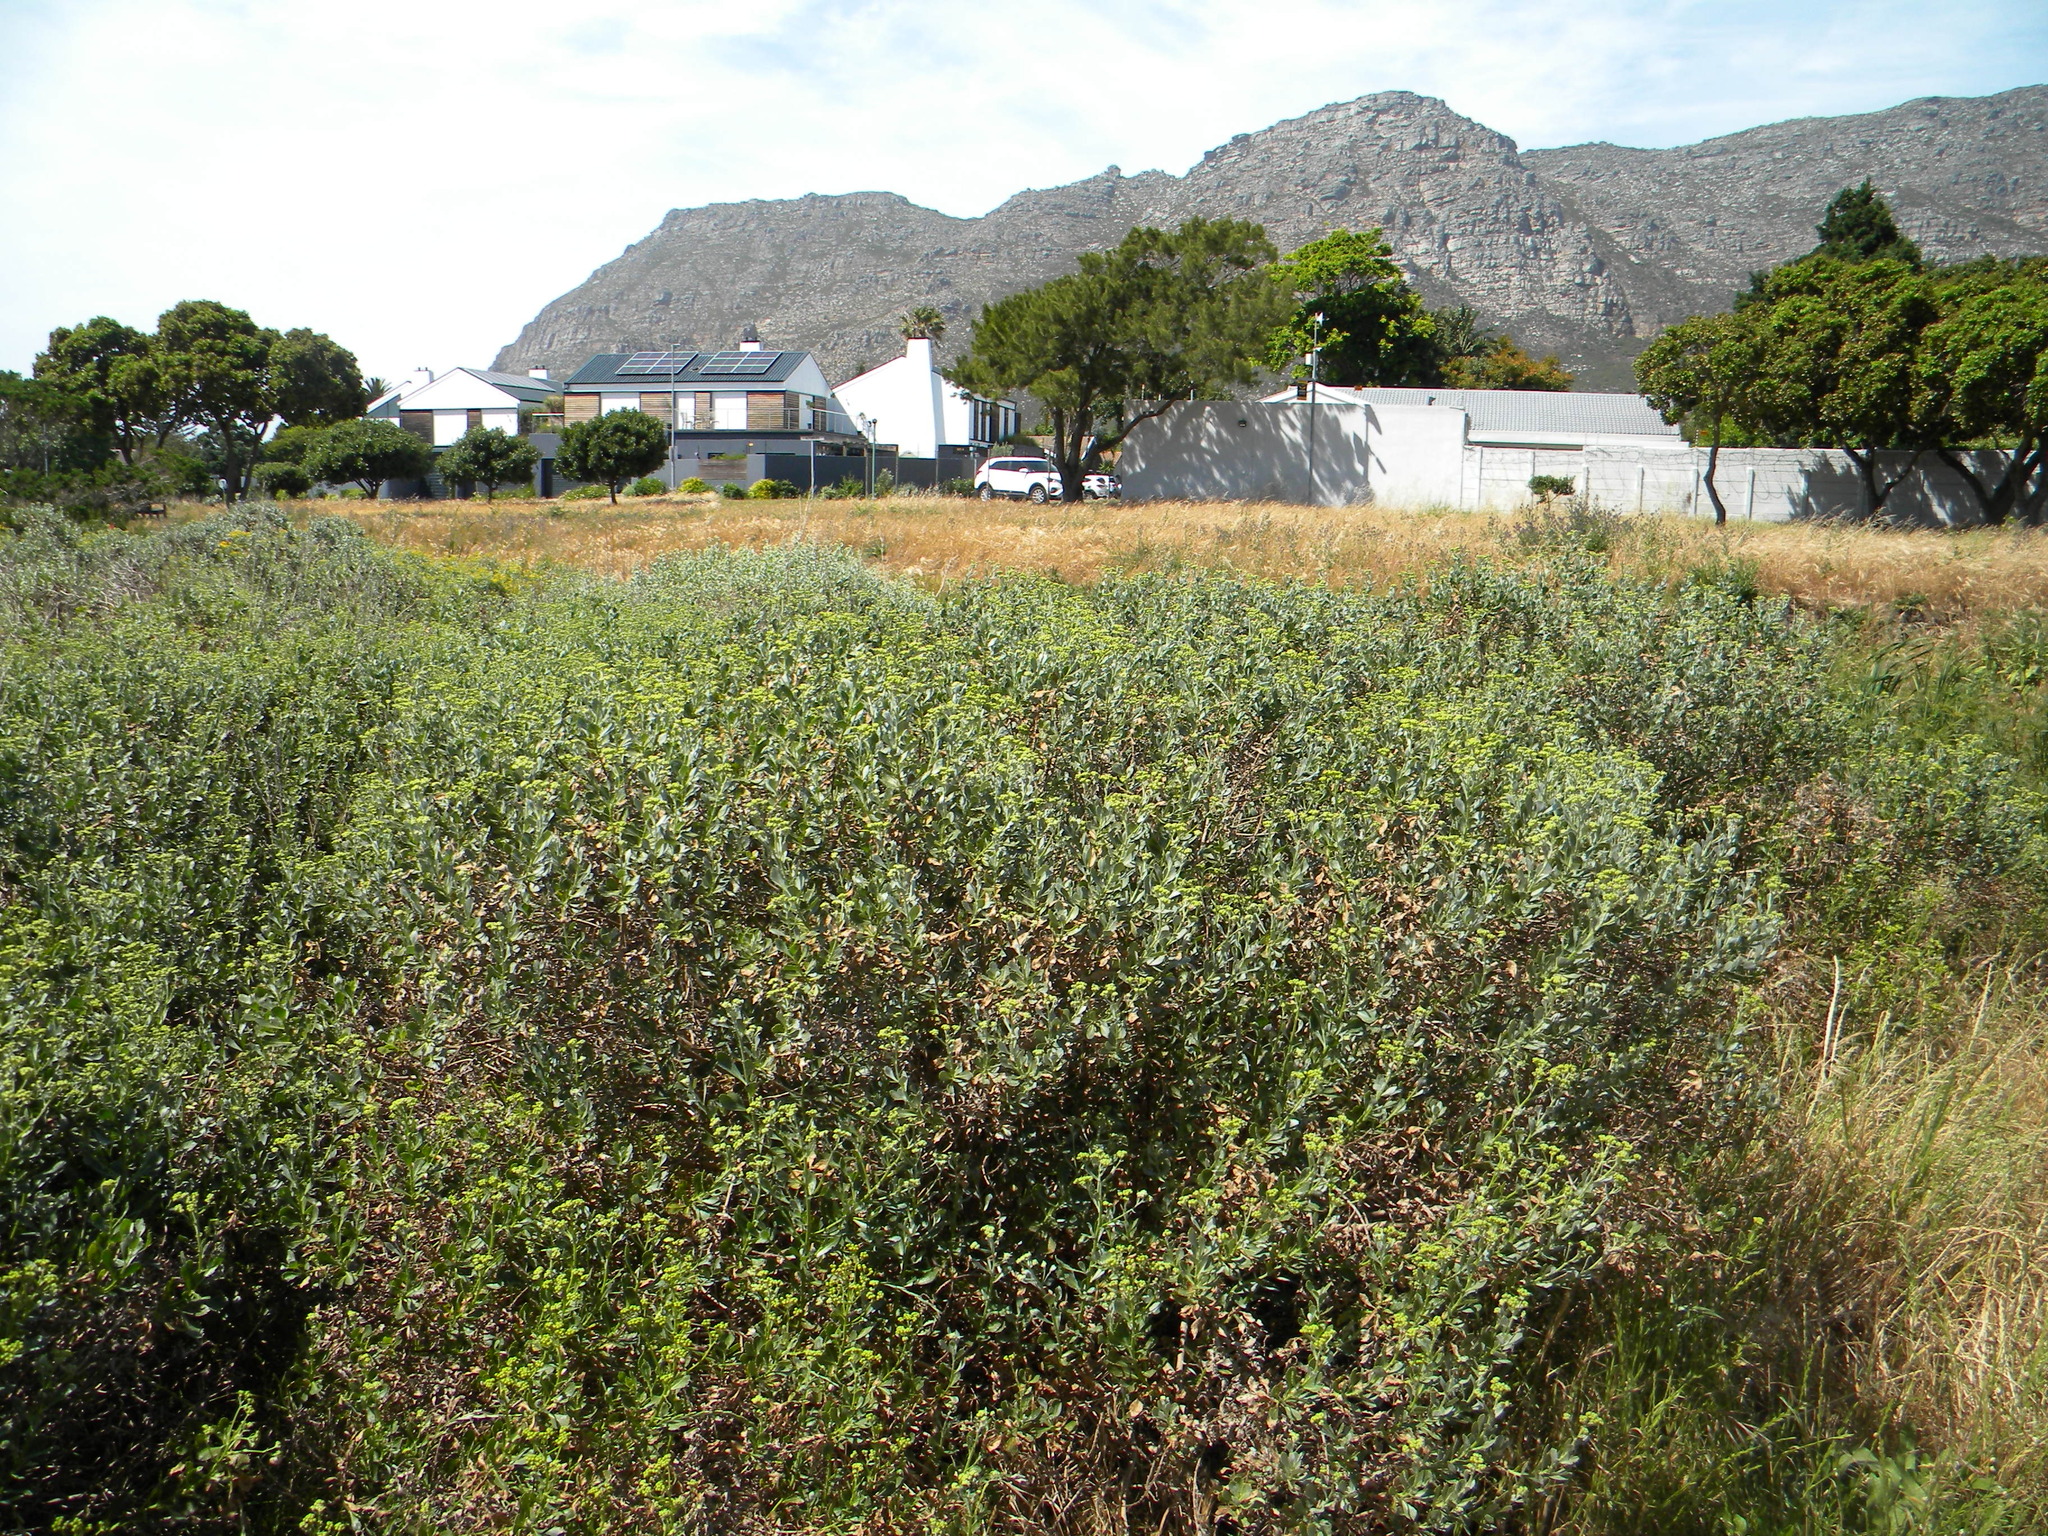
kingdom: Plantae
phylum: Tracheophyta
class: Magnoliopsida
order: Asterales
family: Asteraceae
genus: Senecio
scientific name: Senecio halimifolius
